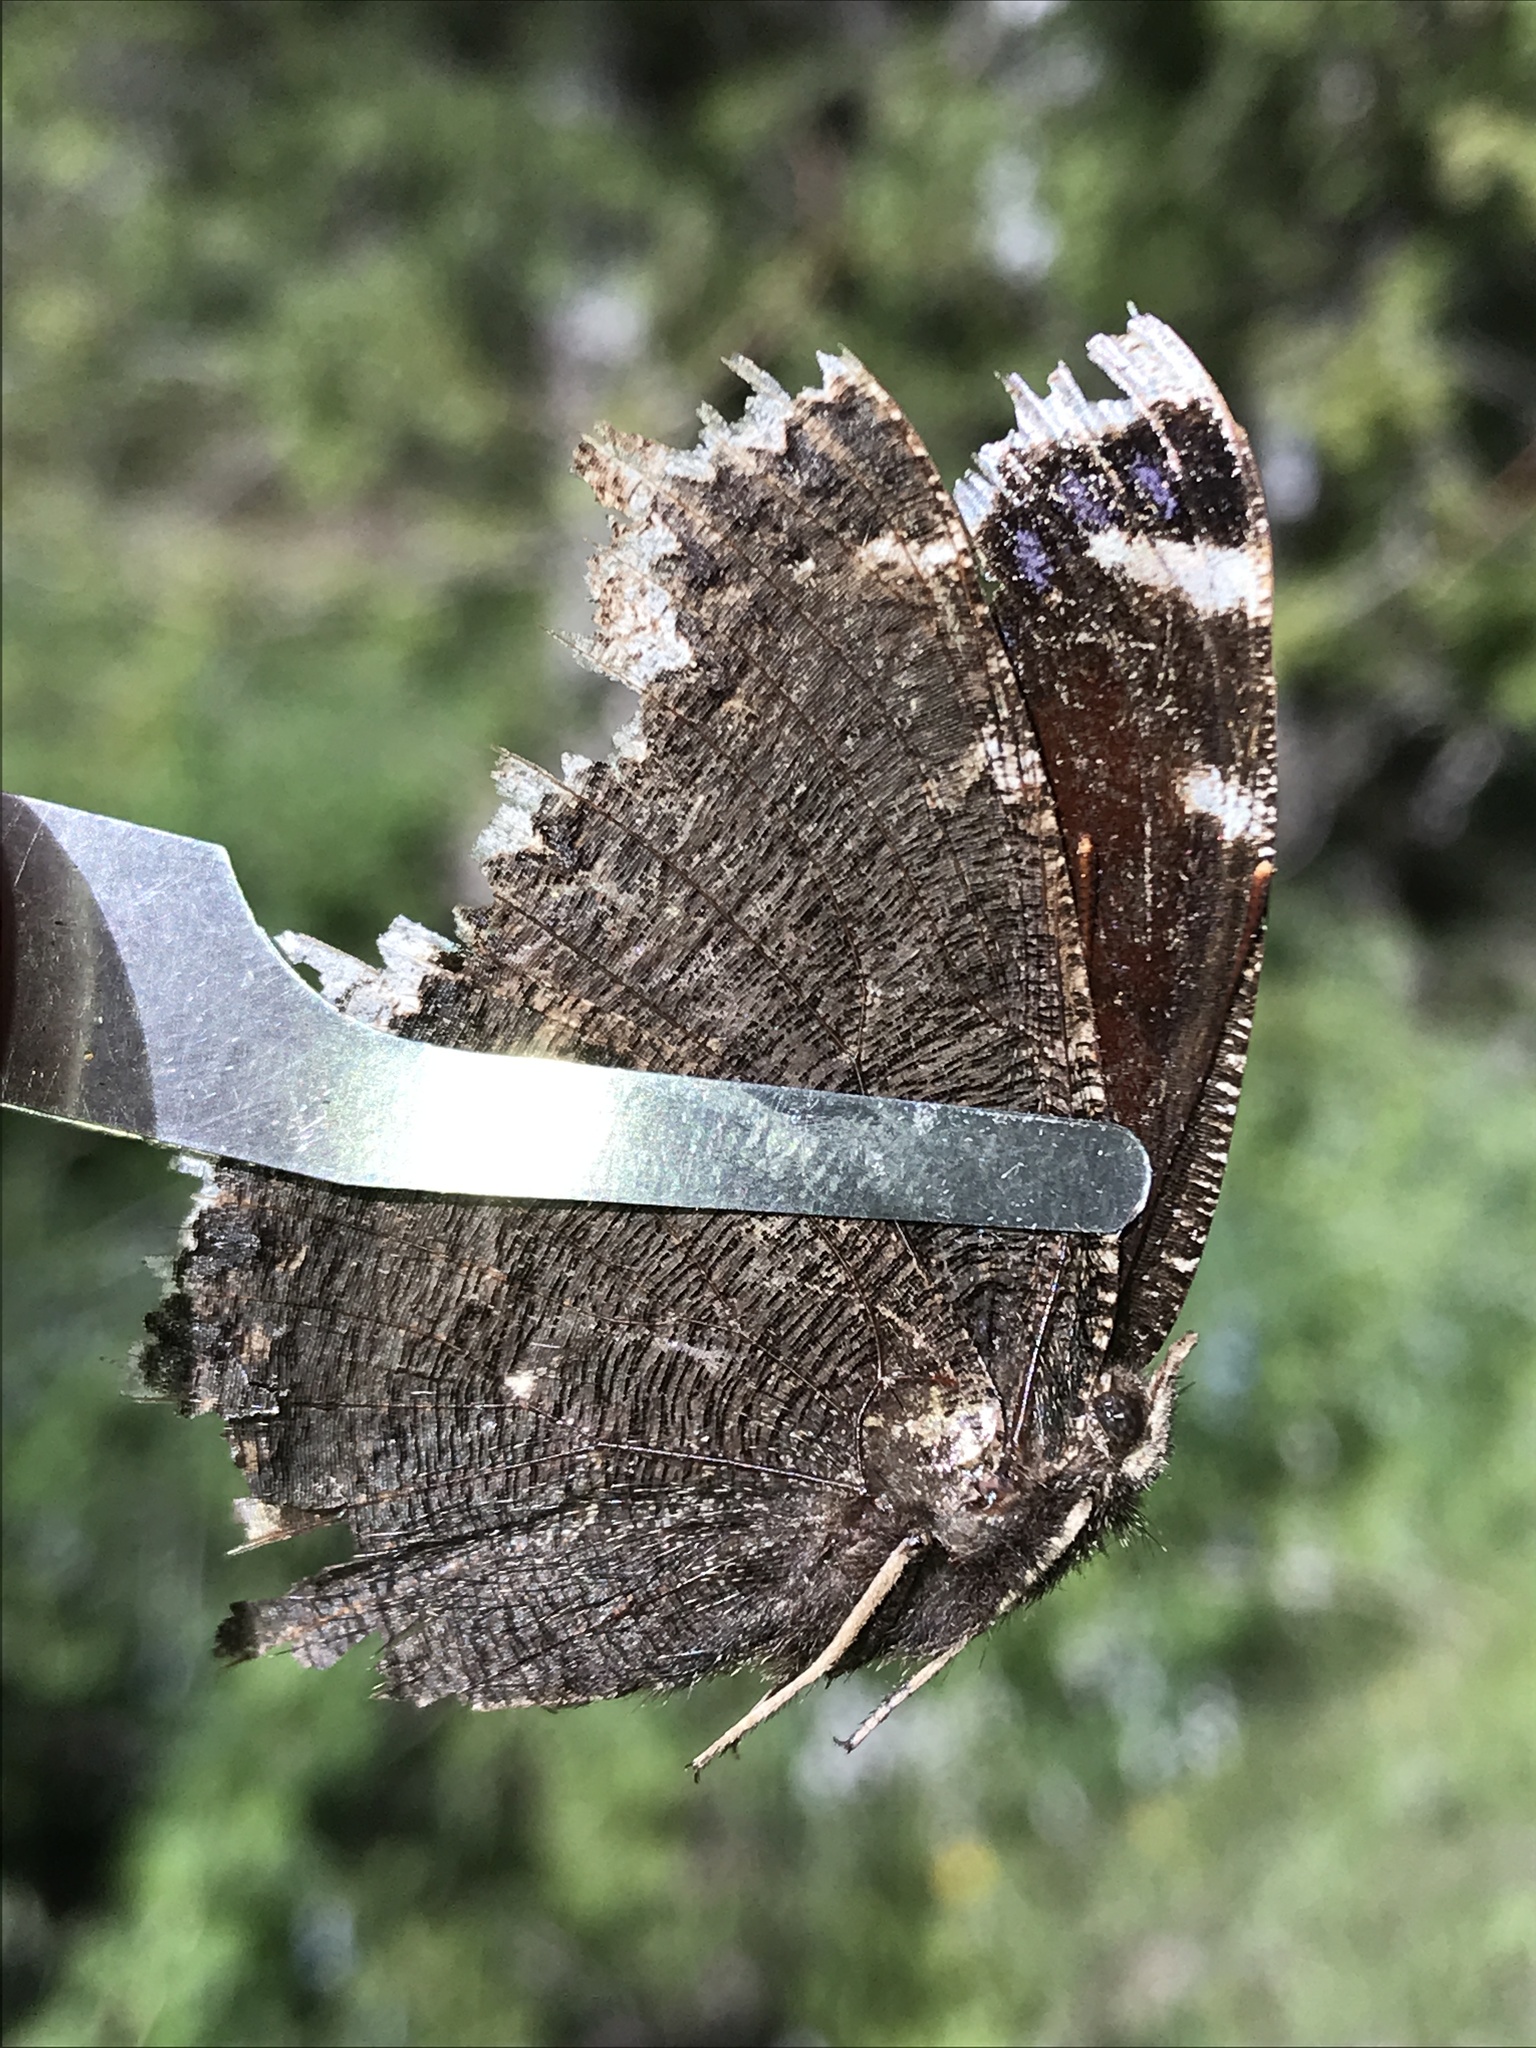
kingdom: Animalia
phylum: Arthropoda
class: Insecta
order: Lepidoptera
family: Nymphalidae
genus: Nymphalis
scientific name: Nymphalis antiopa
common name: Camberwell beauty
